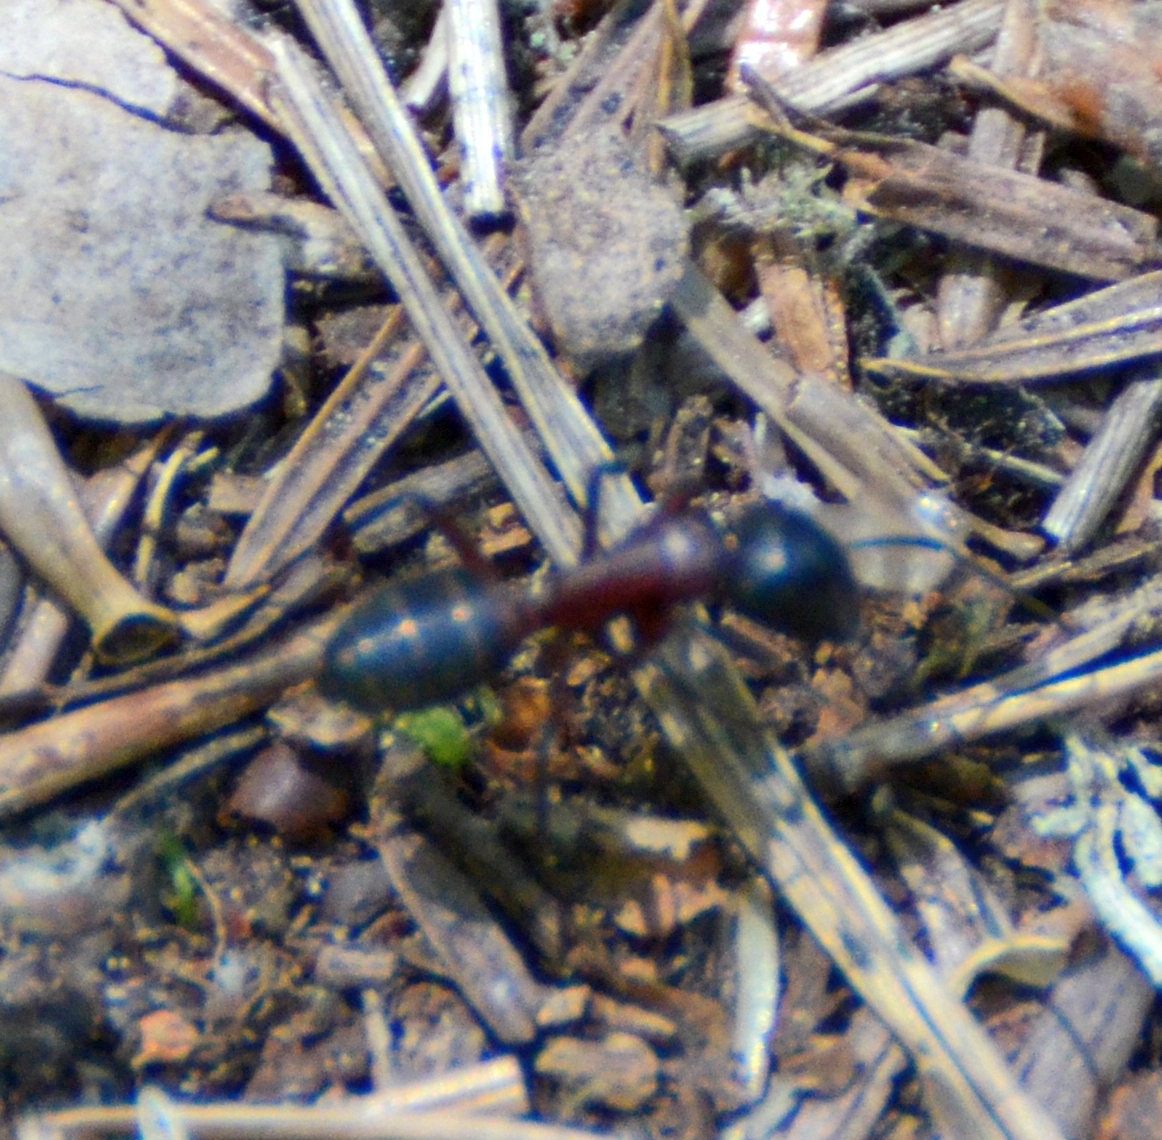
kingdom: Animalia
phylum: Arthropoda
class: Insecta
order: Hymenoptera
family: Formicidae
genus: Camponotus
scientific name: Camponotus ligniperdus
